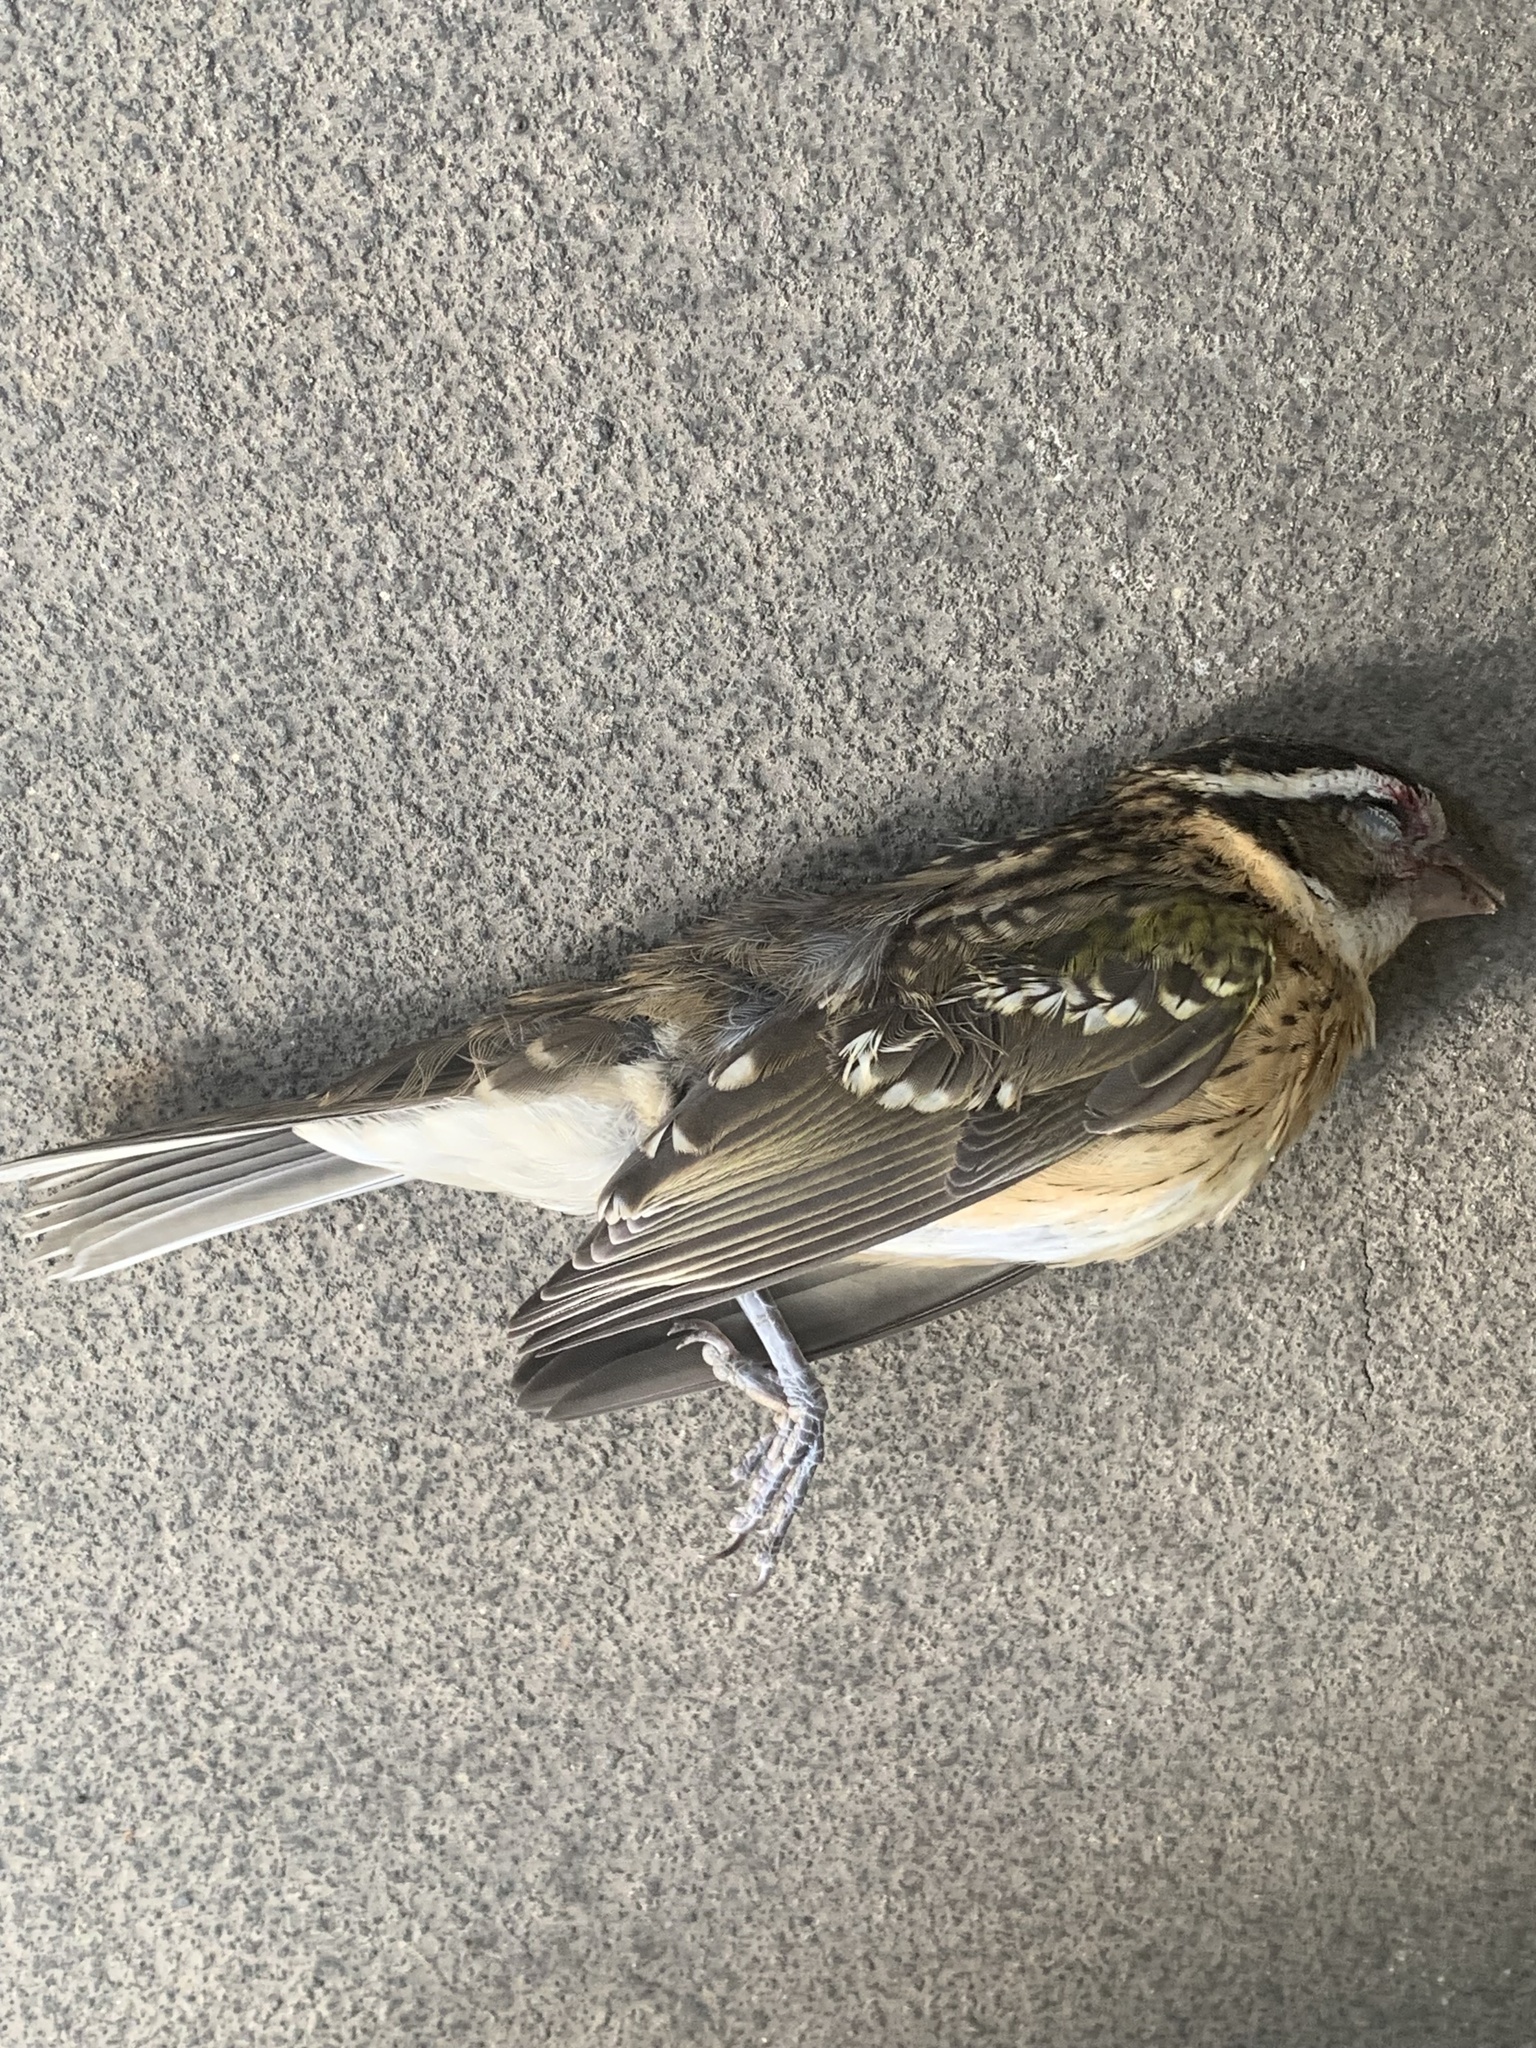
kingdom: Animalia
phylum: Chordata
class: Aves
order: Passeriformes
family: Cardinalidae
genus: Pheucticus
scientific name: Pheucticus melanocephalus
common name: Black-headed grosbeak
